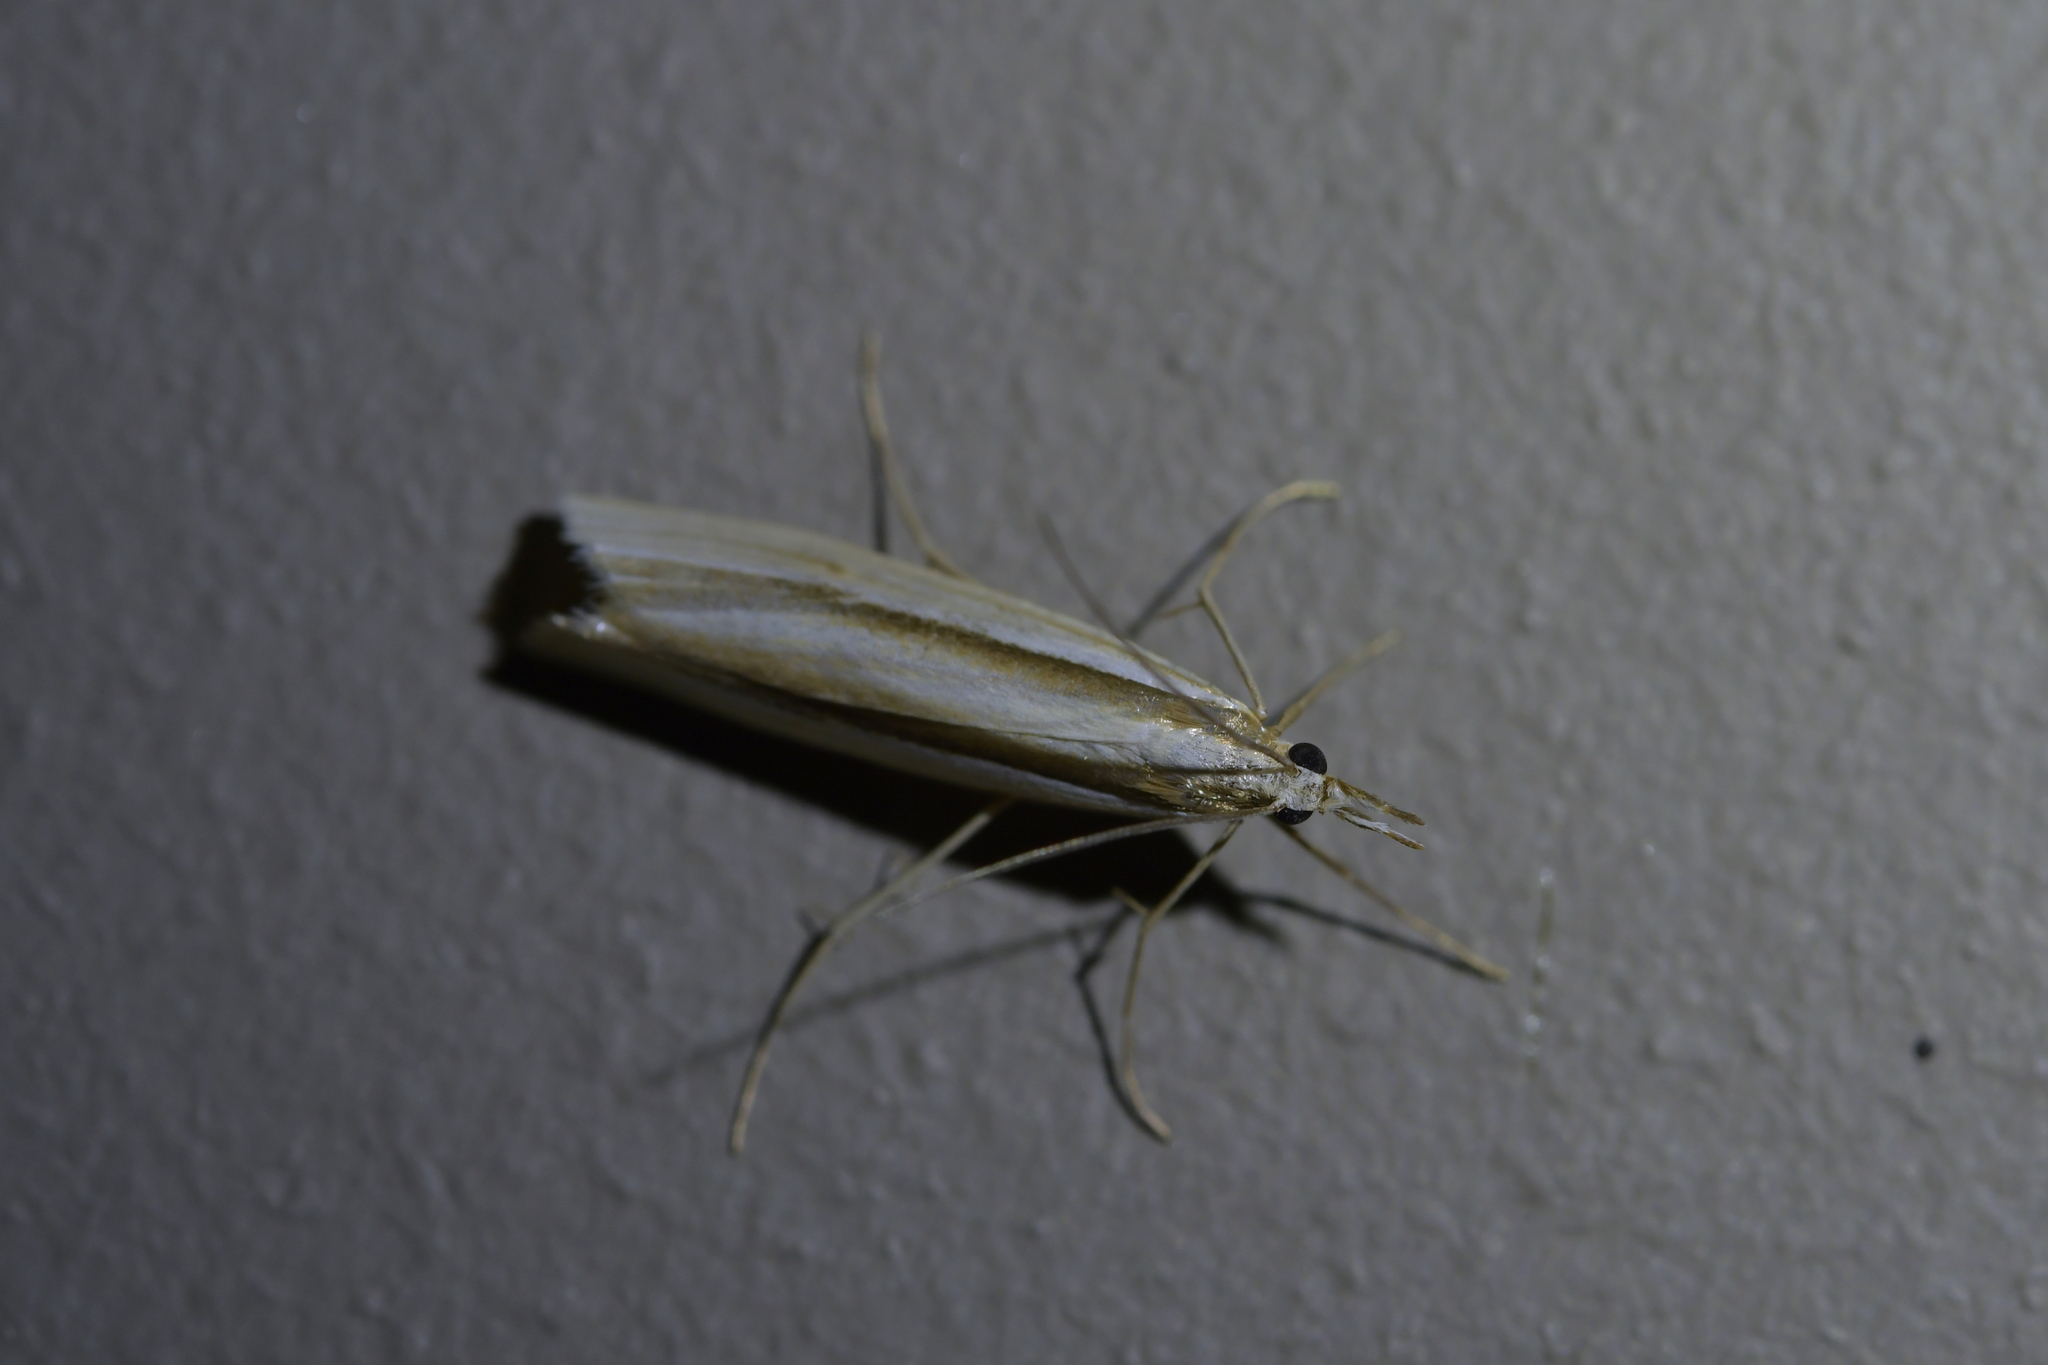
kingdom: Animalia
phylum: Arthropoda
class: Insecta
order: Lepidoptera
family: Crambidae
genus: Orocrambus
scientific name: Orocrambus ramosellus
